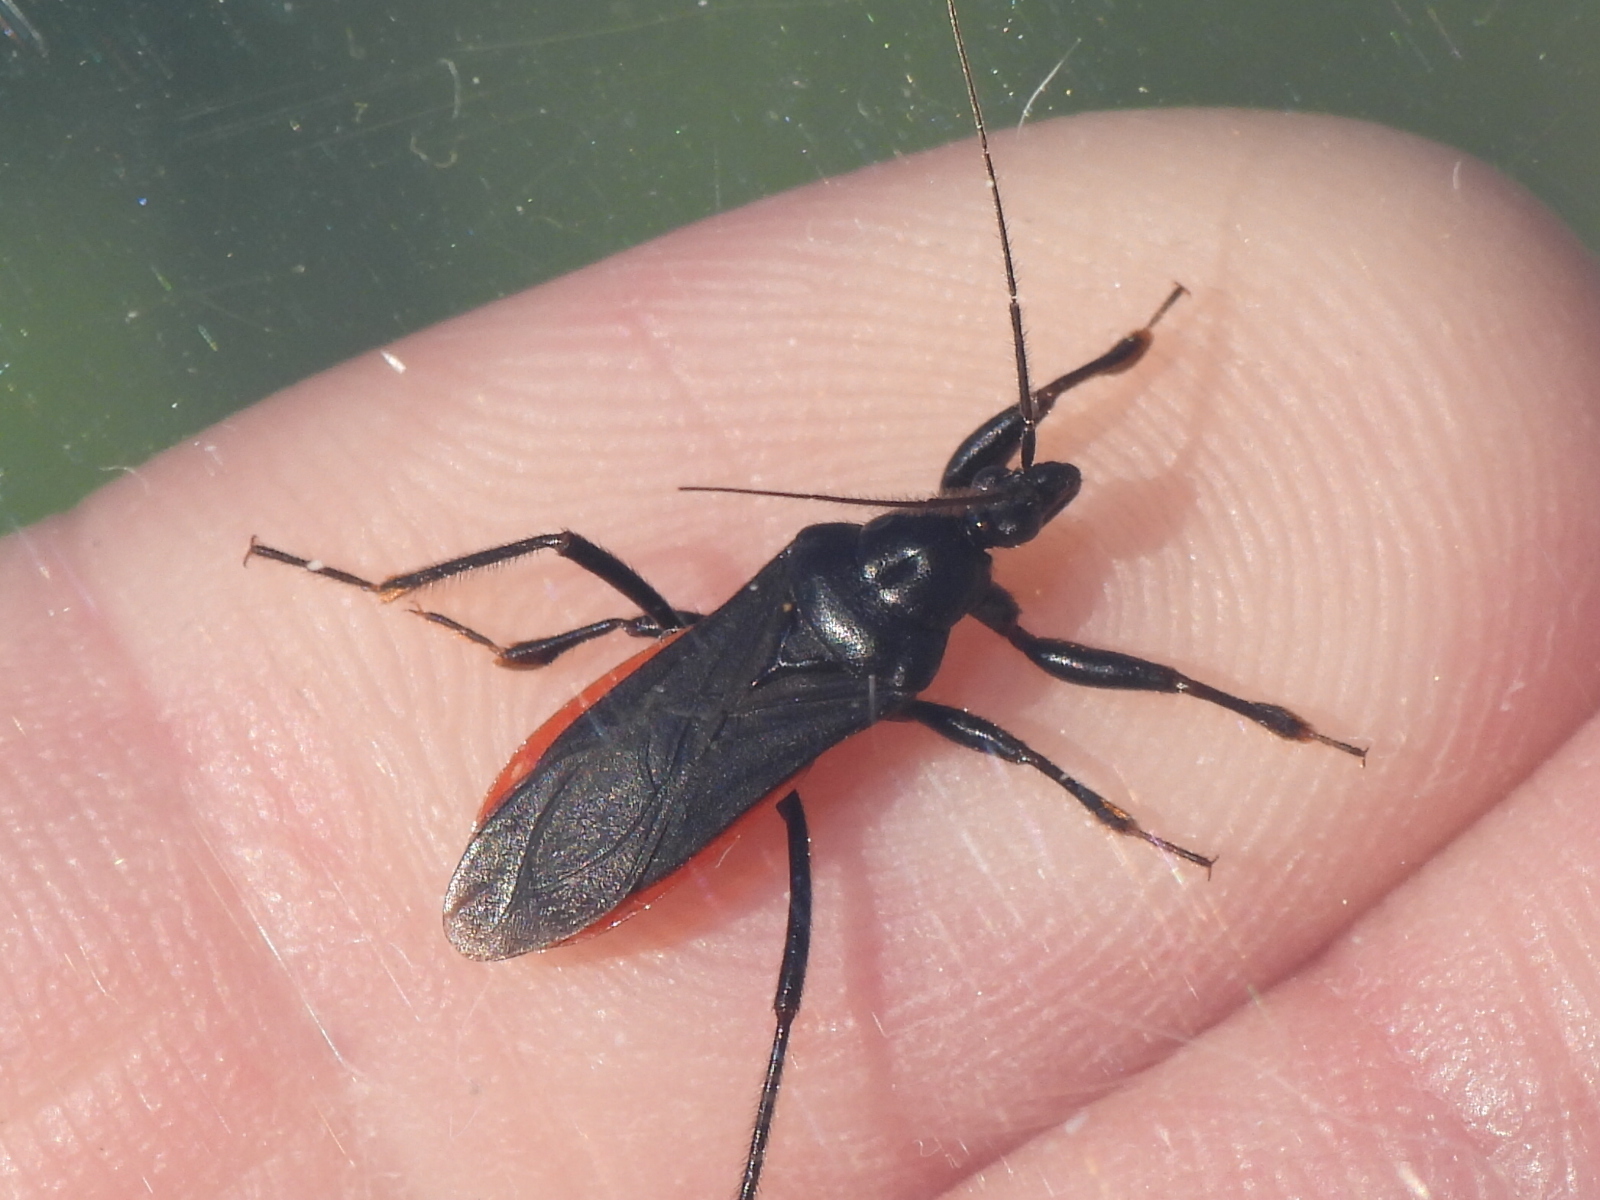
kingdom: Animalia
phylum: Arthropoda
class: Insecta
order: Hemiptera
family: Reduviidae
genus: Melanolestes
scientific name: Melanolestes picipes
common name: Assassin bug
